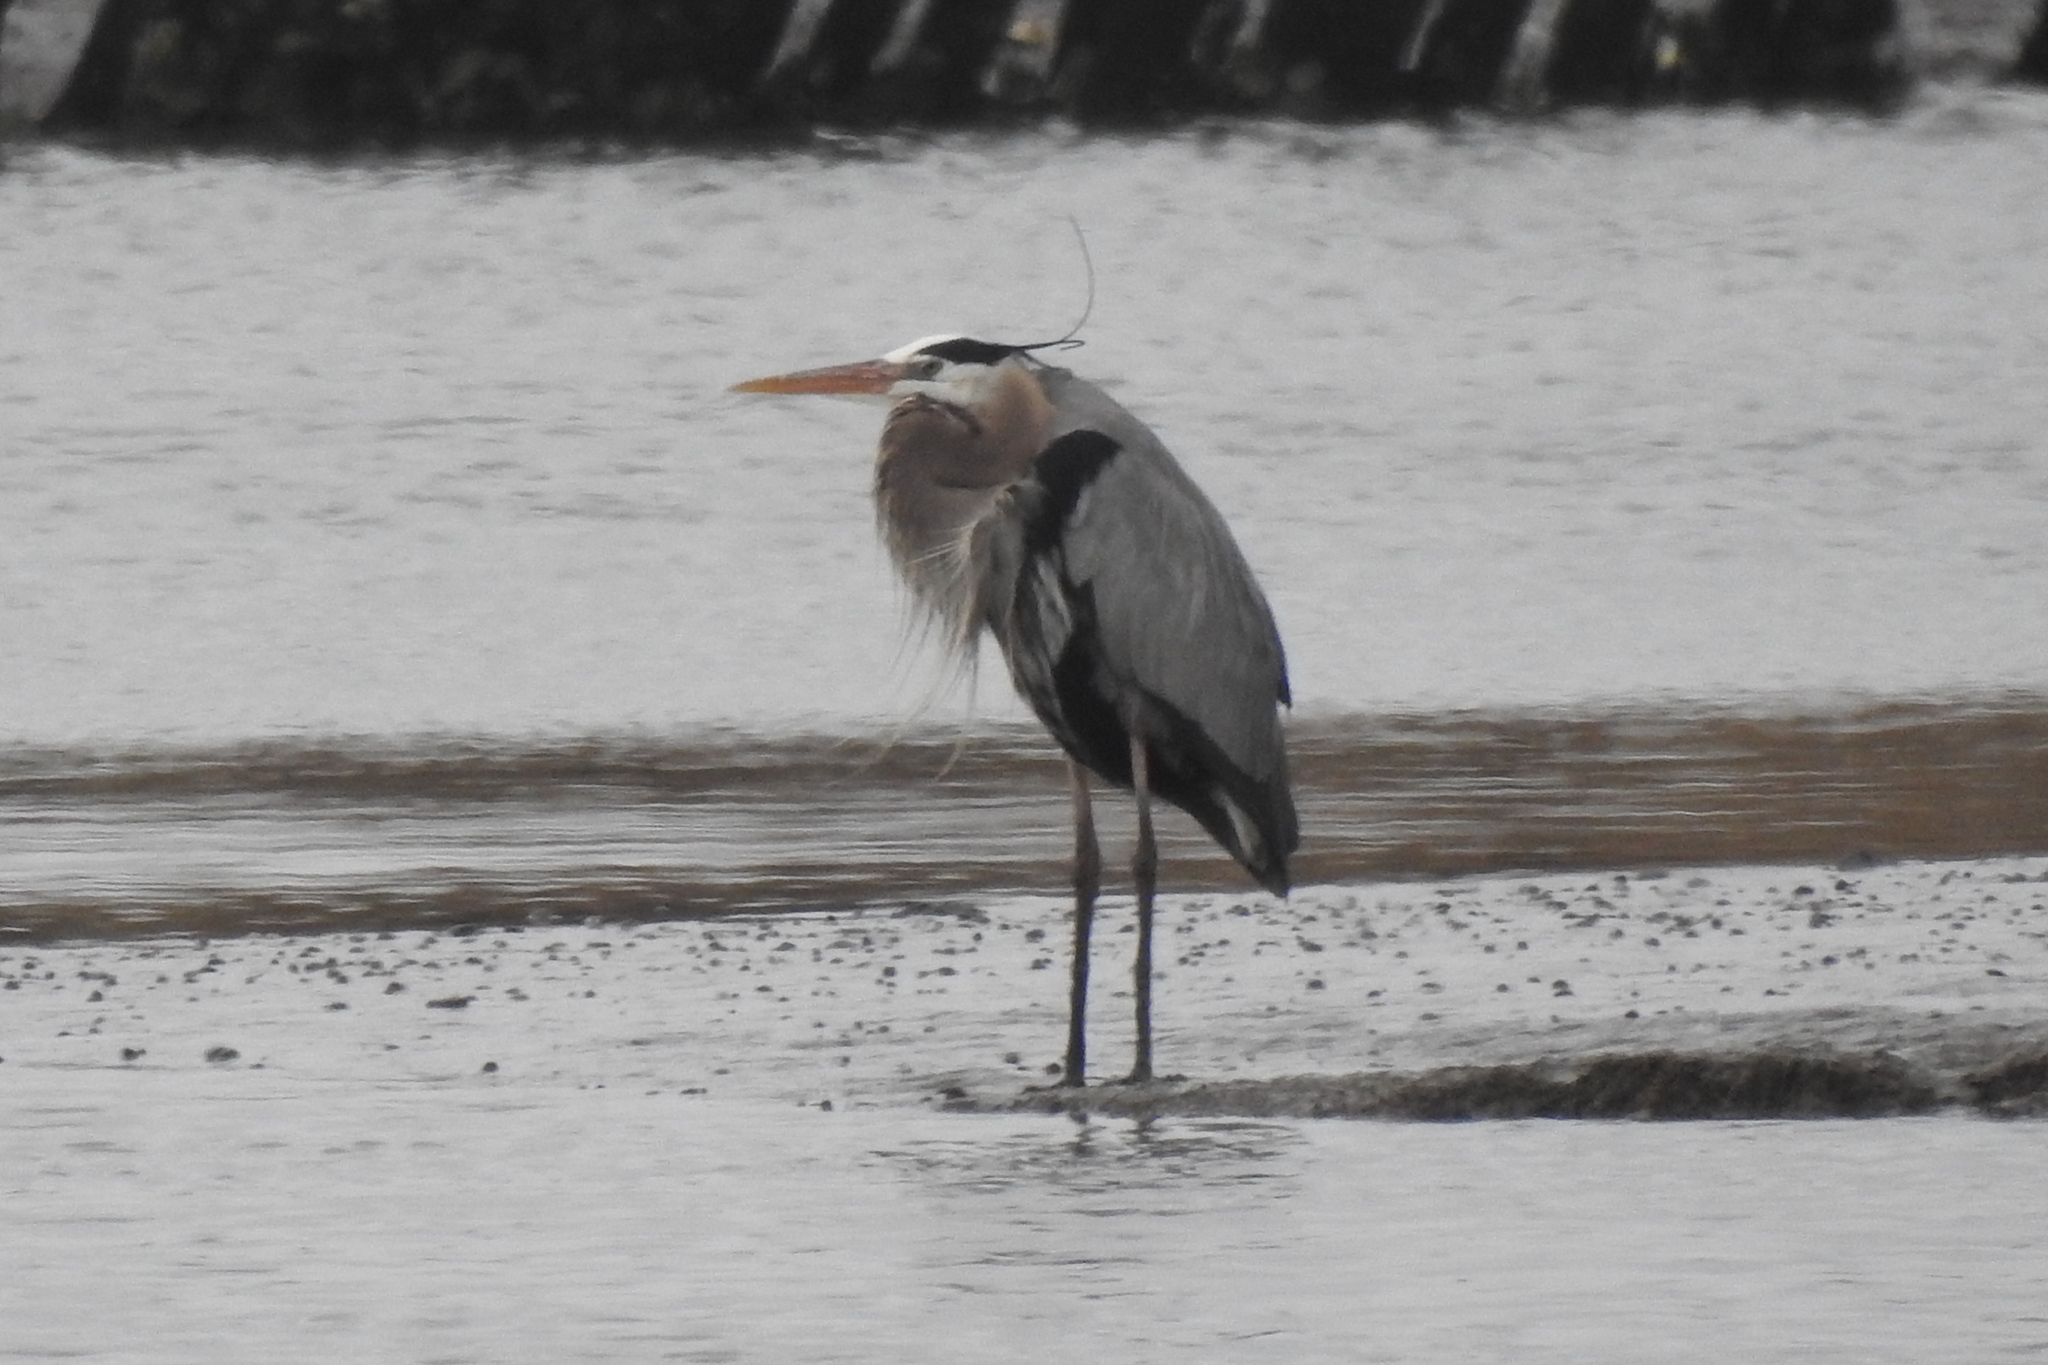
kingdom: Animalia
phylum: Chordata
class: Aves
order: Pelecaniformes
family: Ardeidae
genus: Ardea
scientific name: Ardea herodias
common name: Great blue heron
